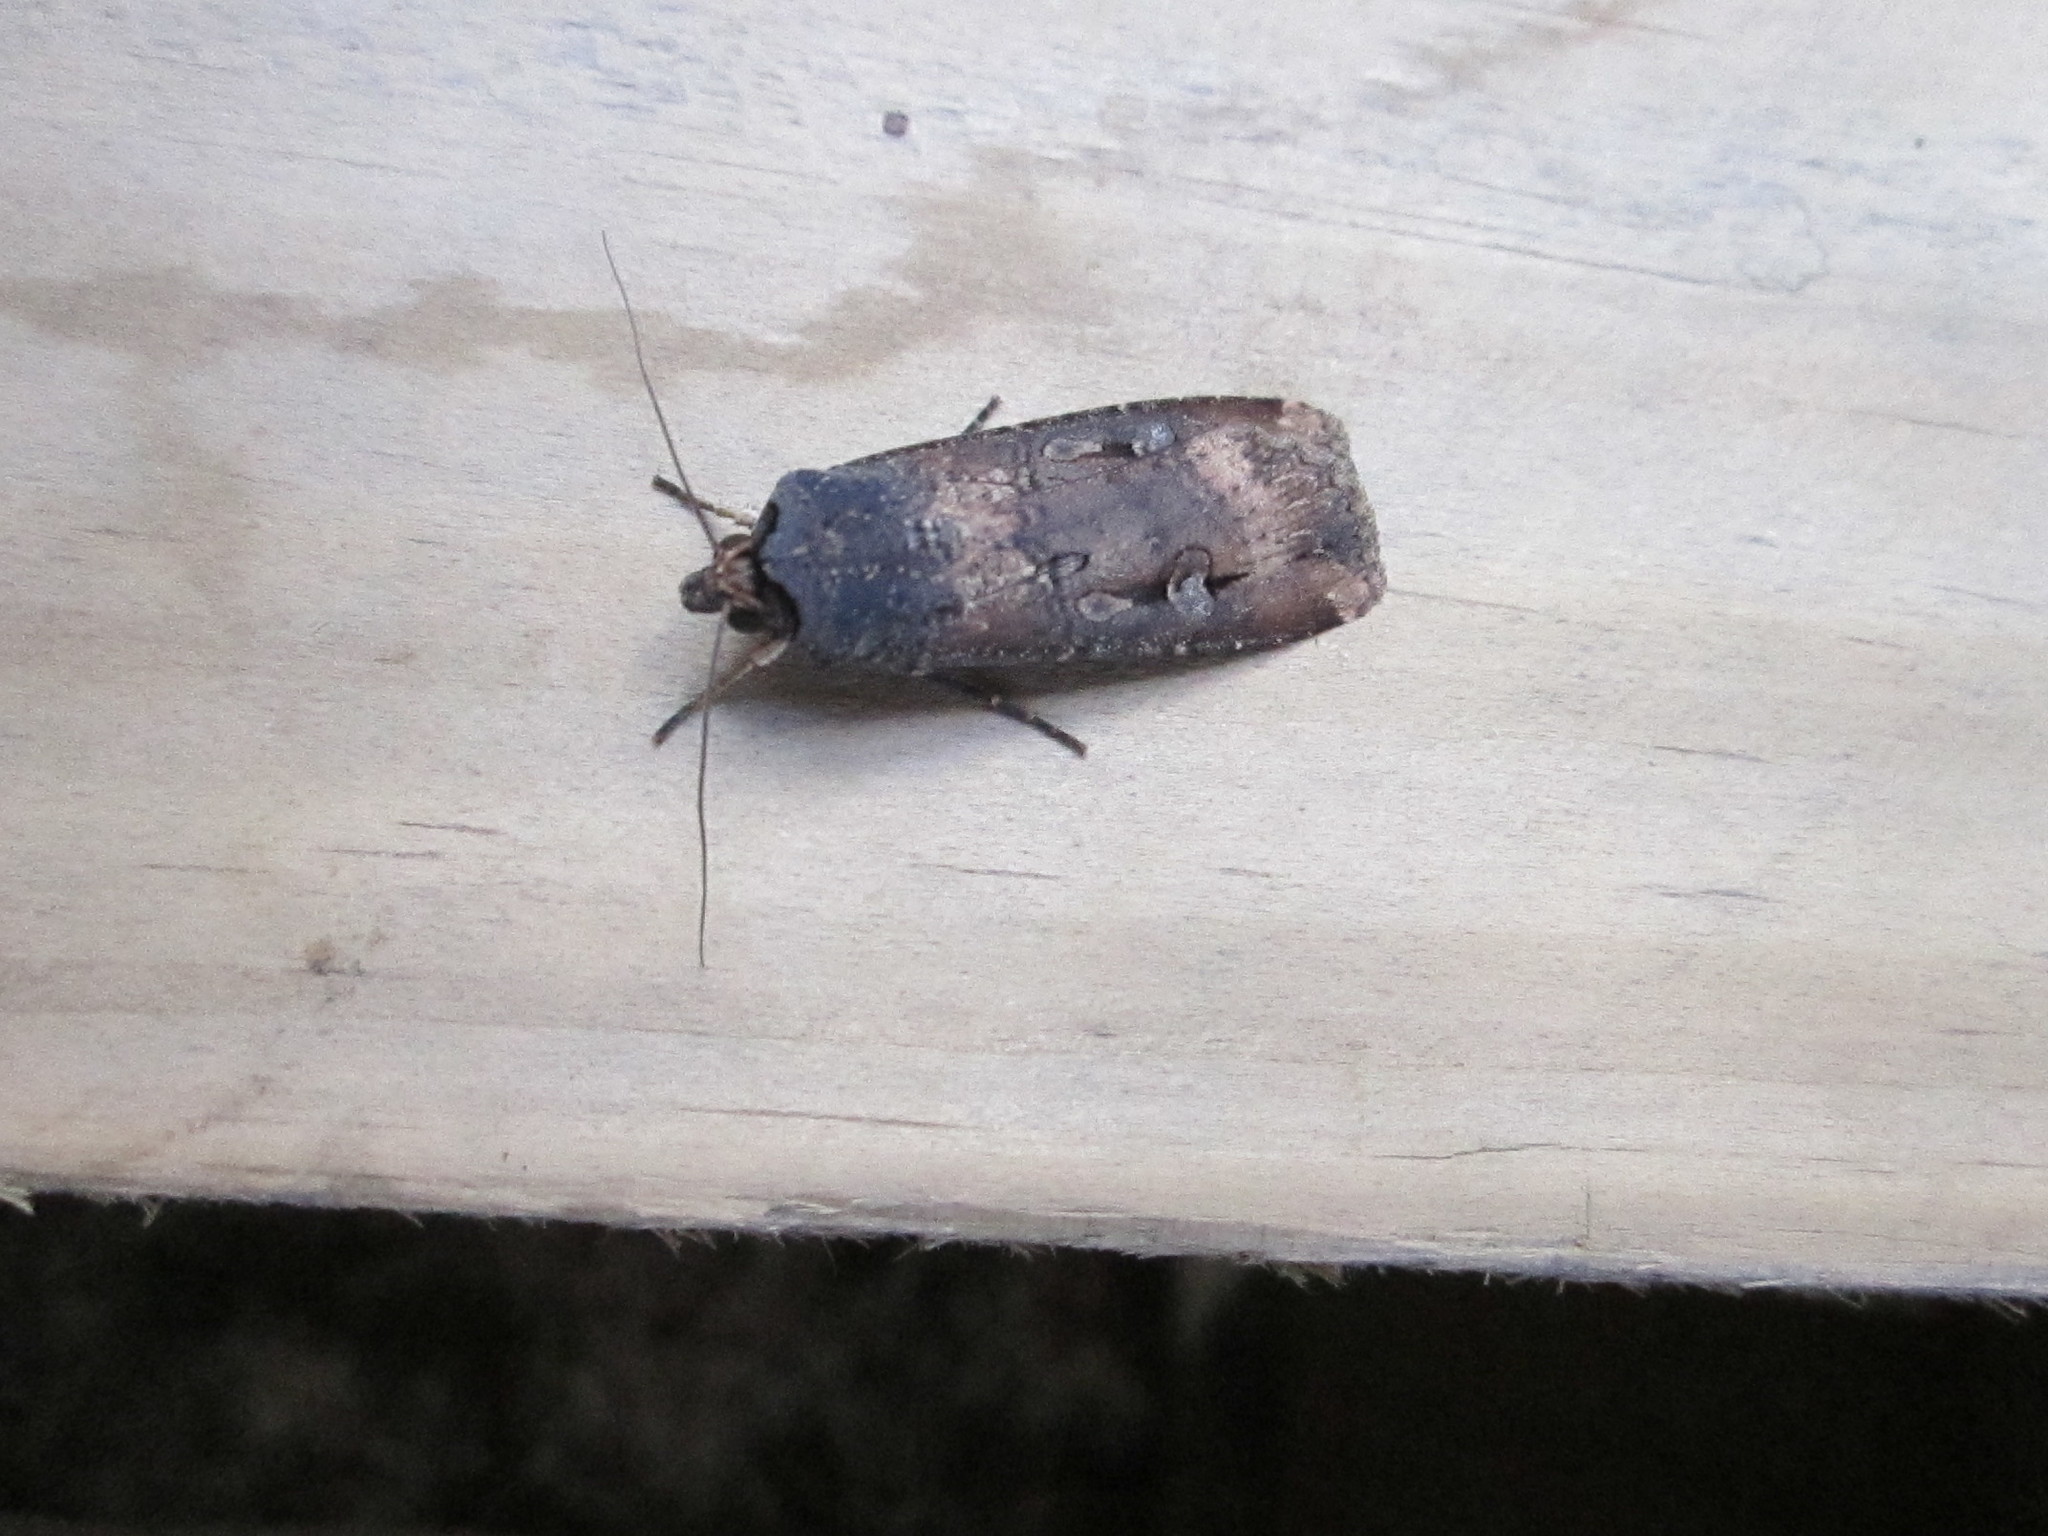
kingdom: Animalia
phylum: Arthropoda
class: Insecta
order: Lepidoptera
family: Noctuidae
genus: Agrotis
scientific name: Agrotis ipsilon
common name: Dark sword-grass
